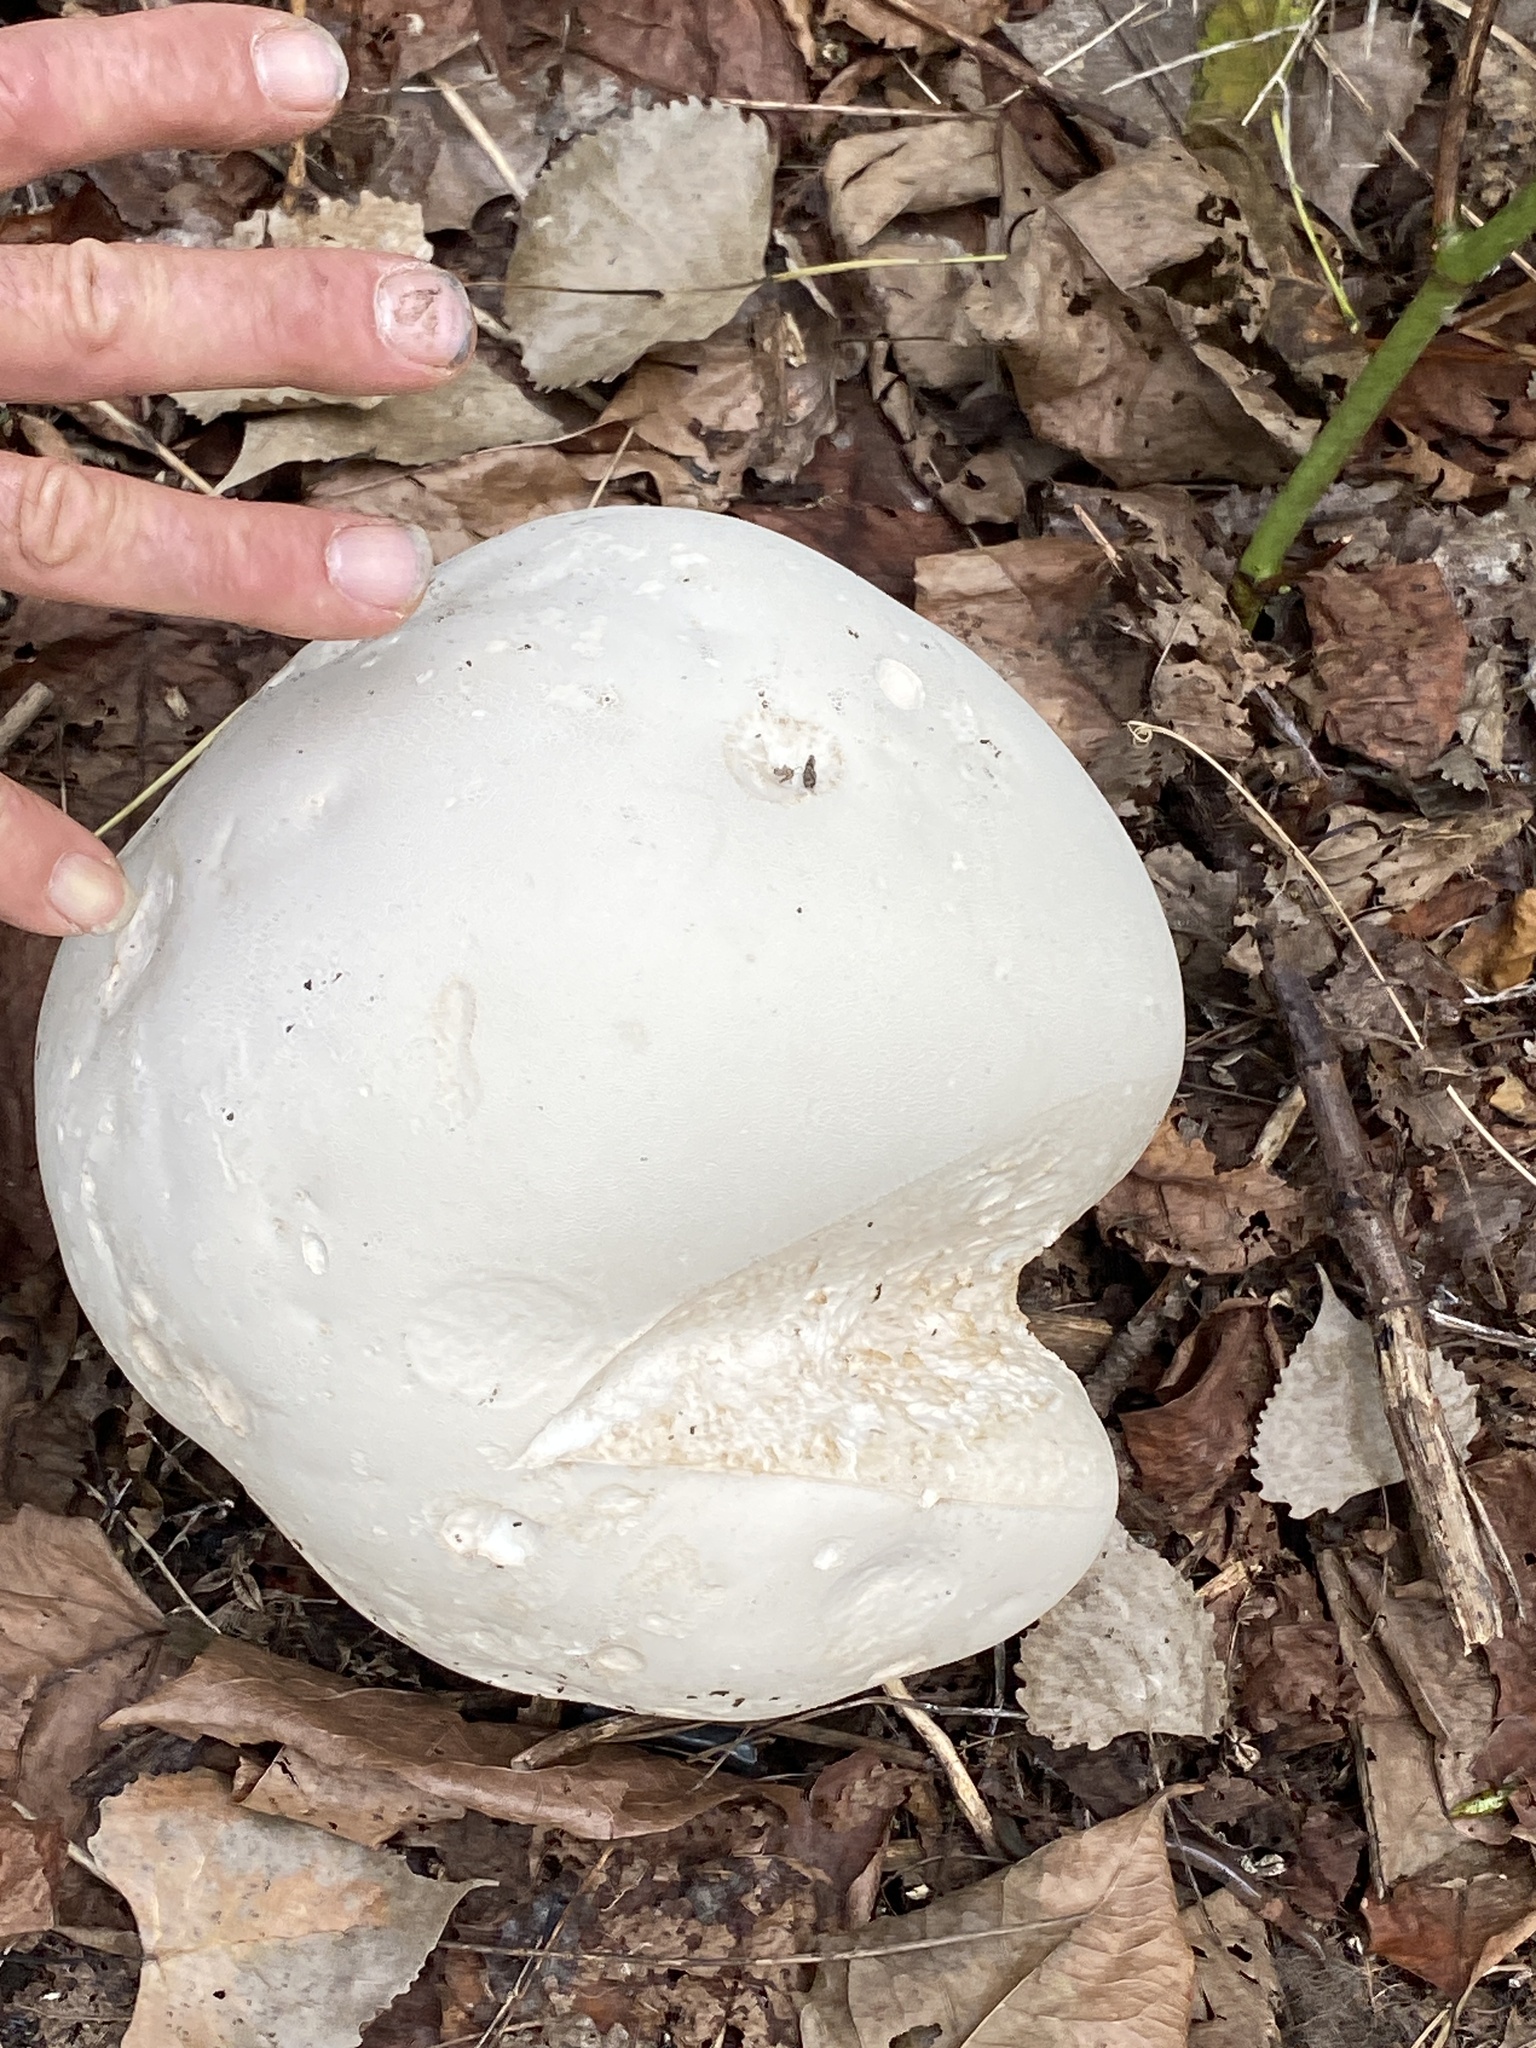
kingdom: Fungi
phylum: Basidiomycota
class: Agaricomycetes
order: Agaricales
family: Lycoperdaceae
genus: Calvatia
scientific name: Calvatia gigantea
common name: Giant puffball
